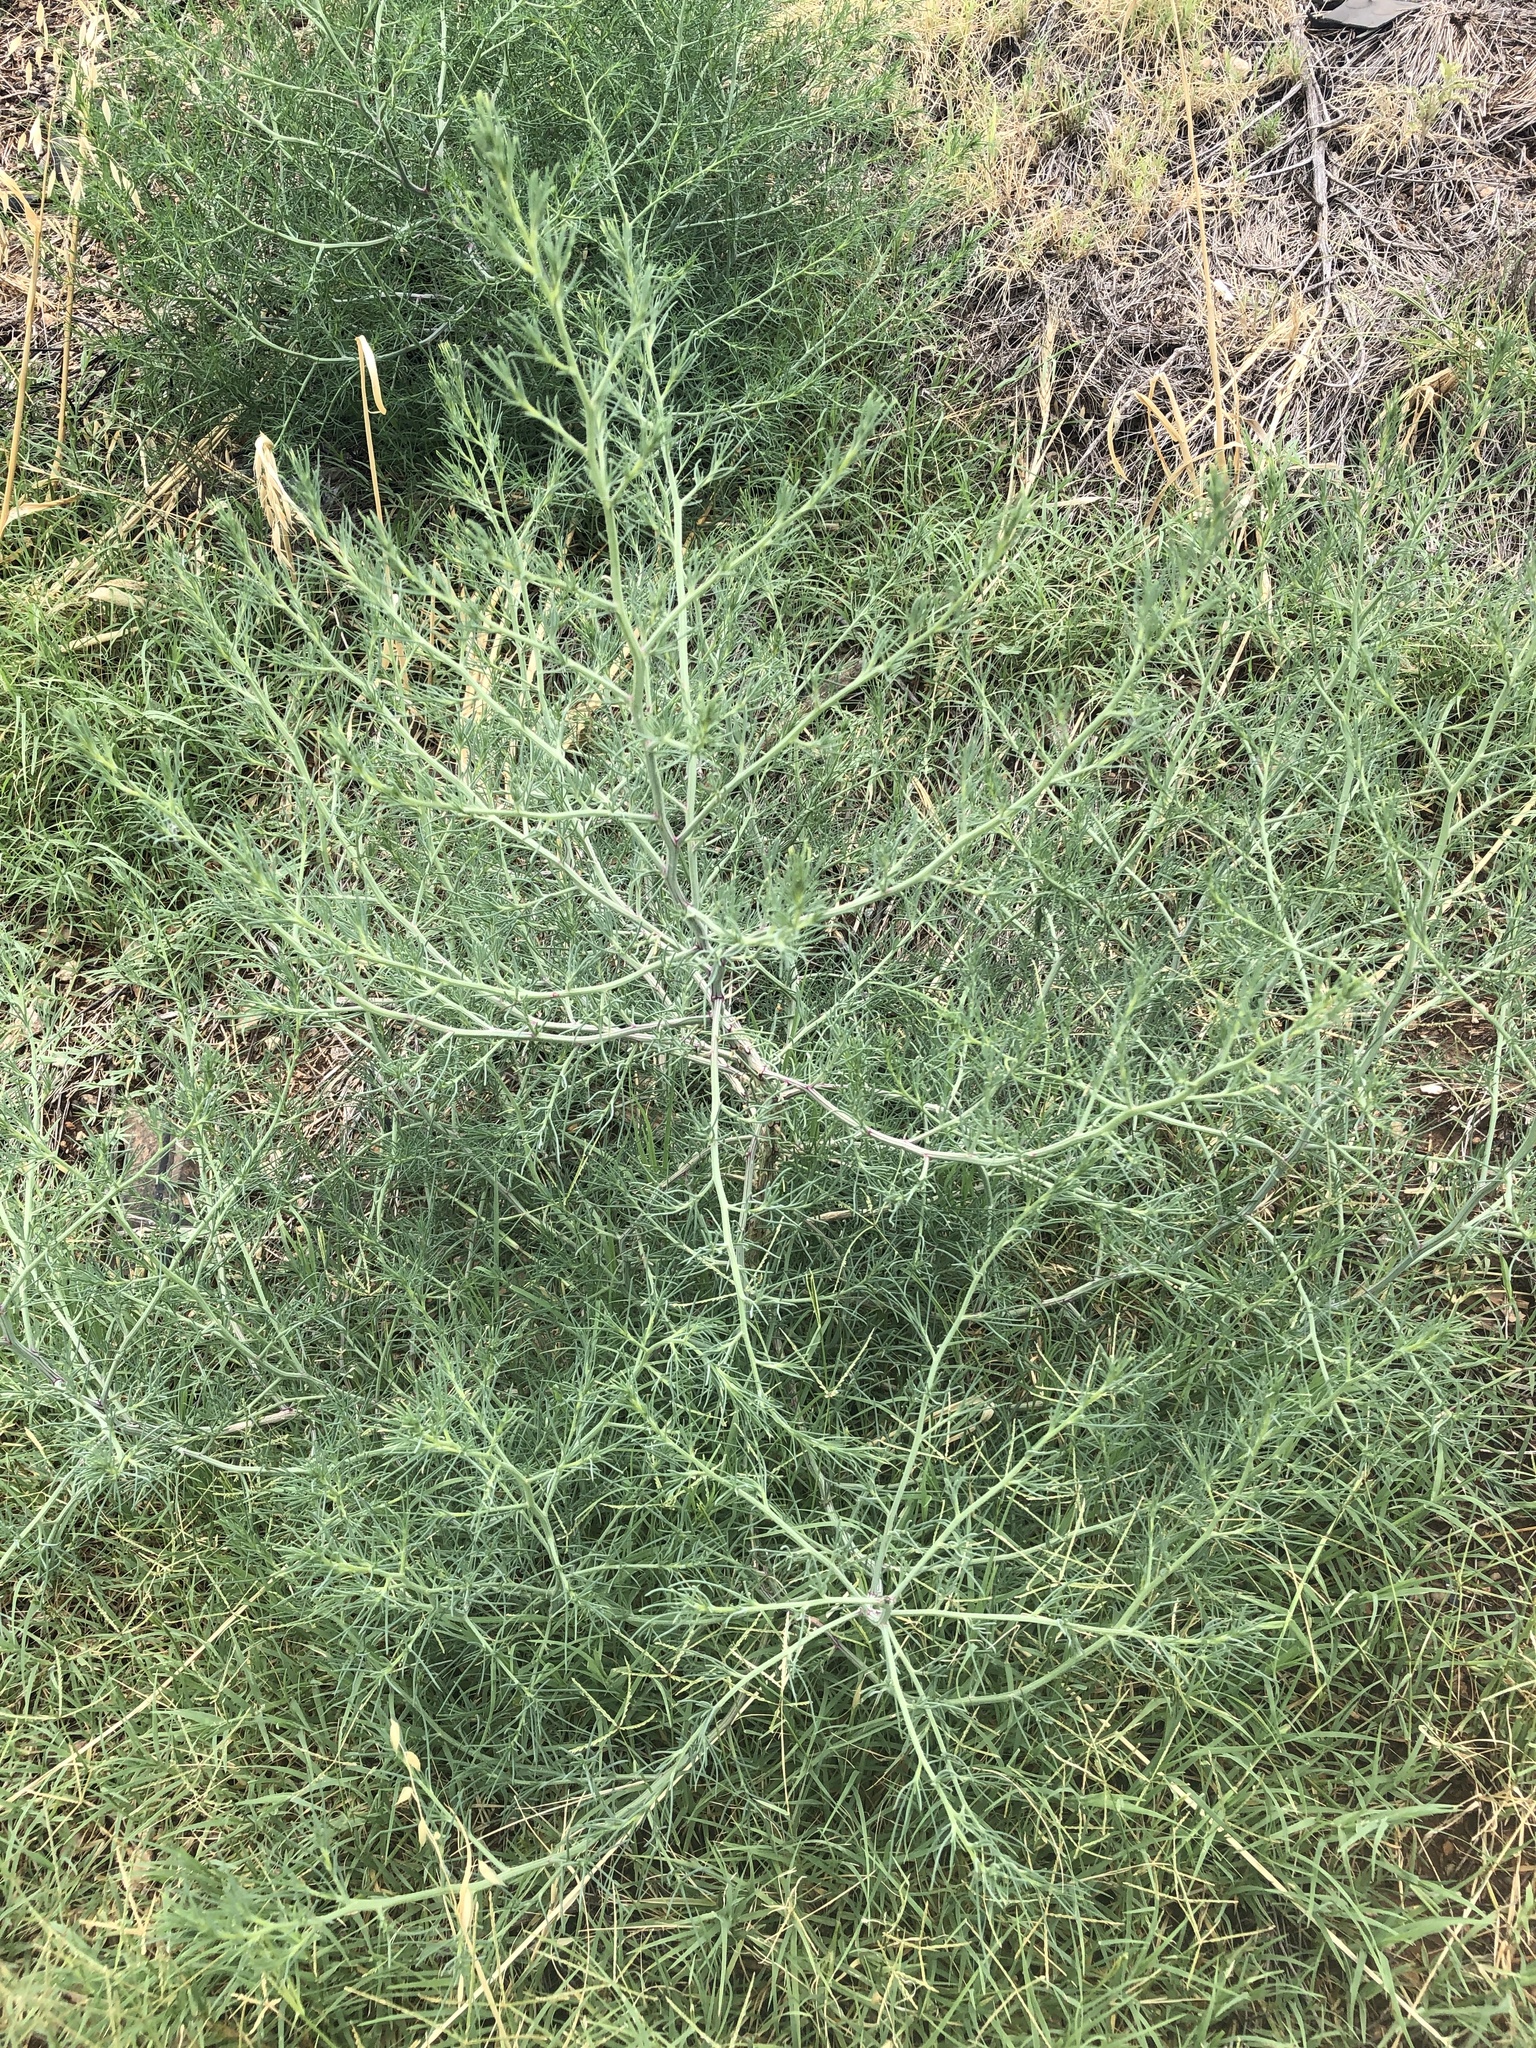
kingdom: Plantae
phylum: Tracheophyta
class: Magnoliopsida
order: Caryophyllales
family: Amaranthaceae
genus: Salsola
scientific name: Salsola tragus
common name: Prickly russian thistle
